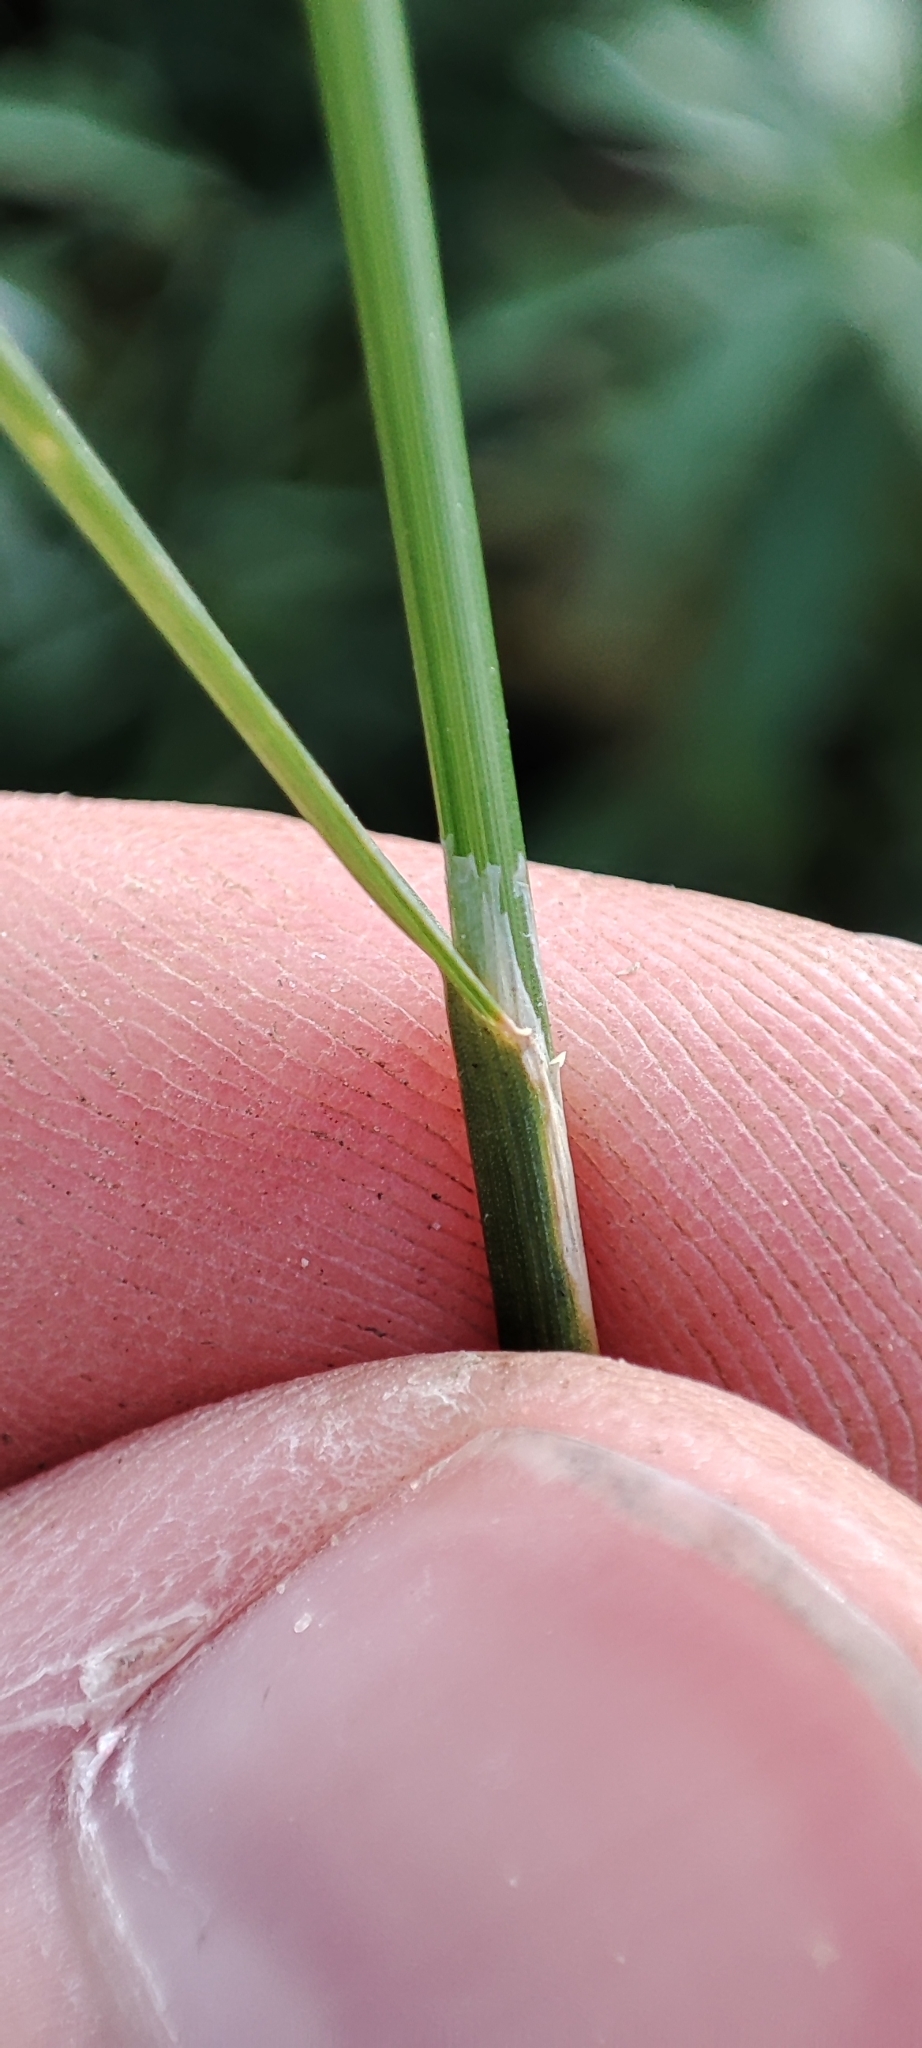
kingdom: Plantae
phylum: Tracheophyta
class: Liliopsida
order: Poales
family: Poaceae
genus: Poa
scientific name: Poa palustris
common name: Swamp meadow-grass
